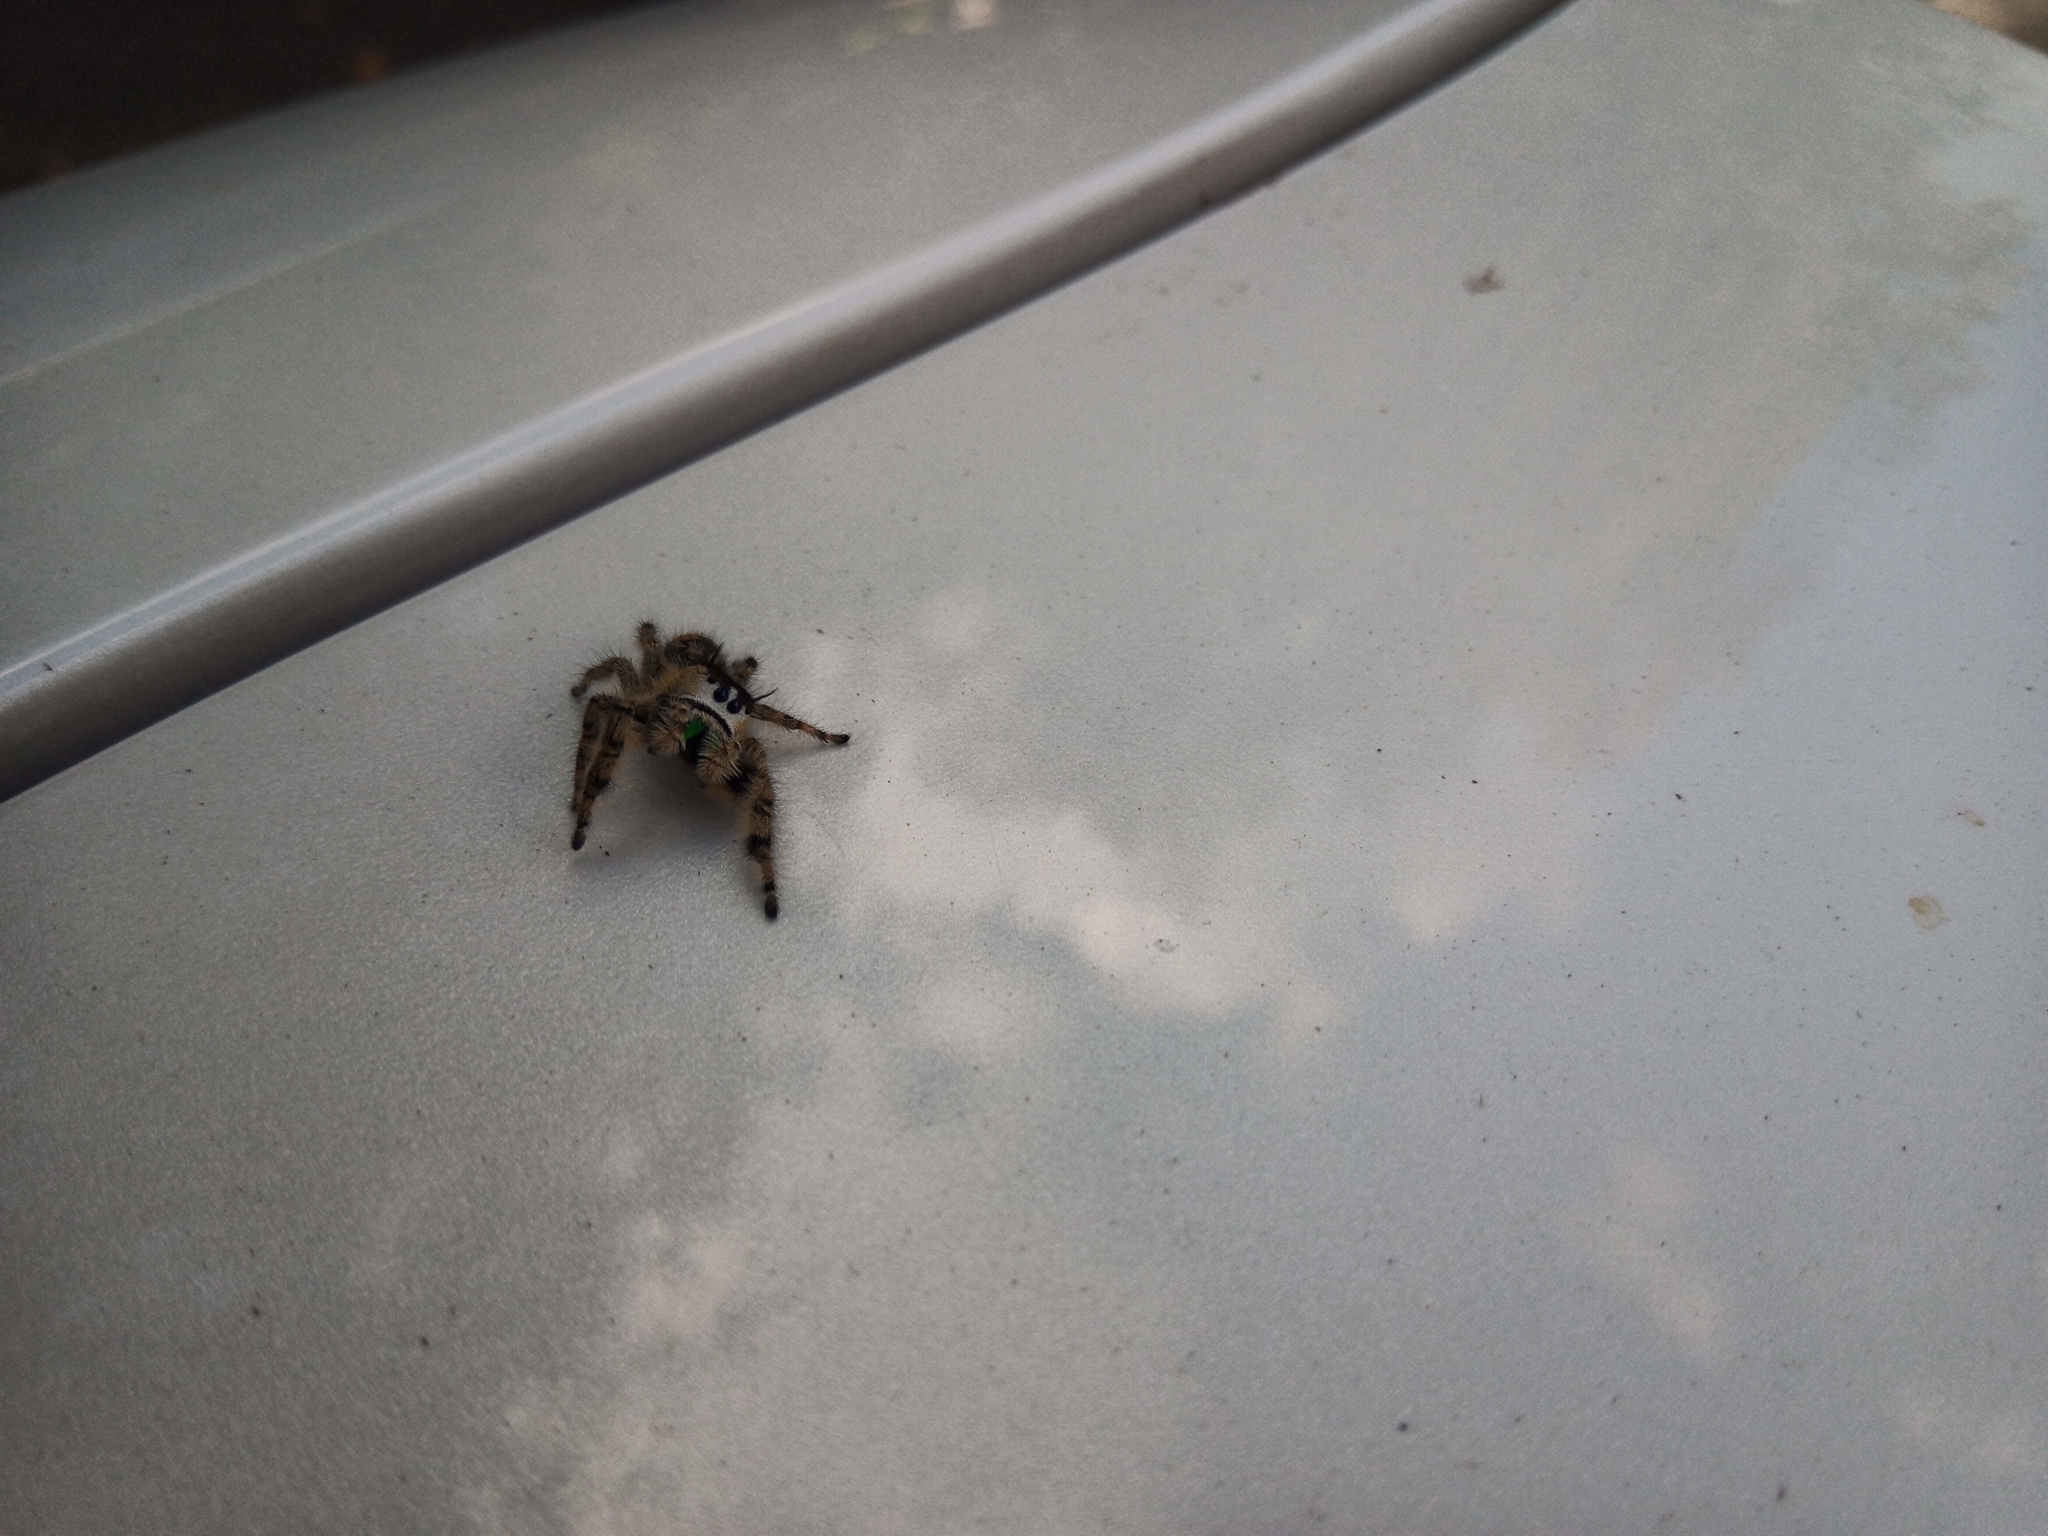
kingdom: Animalia
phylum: Arthropoda
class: Arachnida
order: Araneae
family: Salticidae
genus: Phidippus
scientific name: Phidippus otiosus
